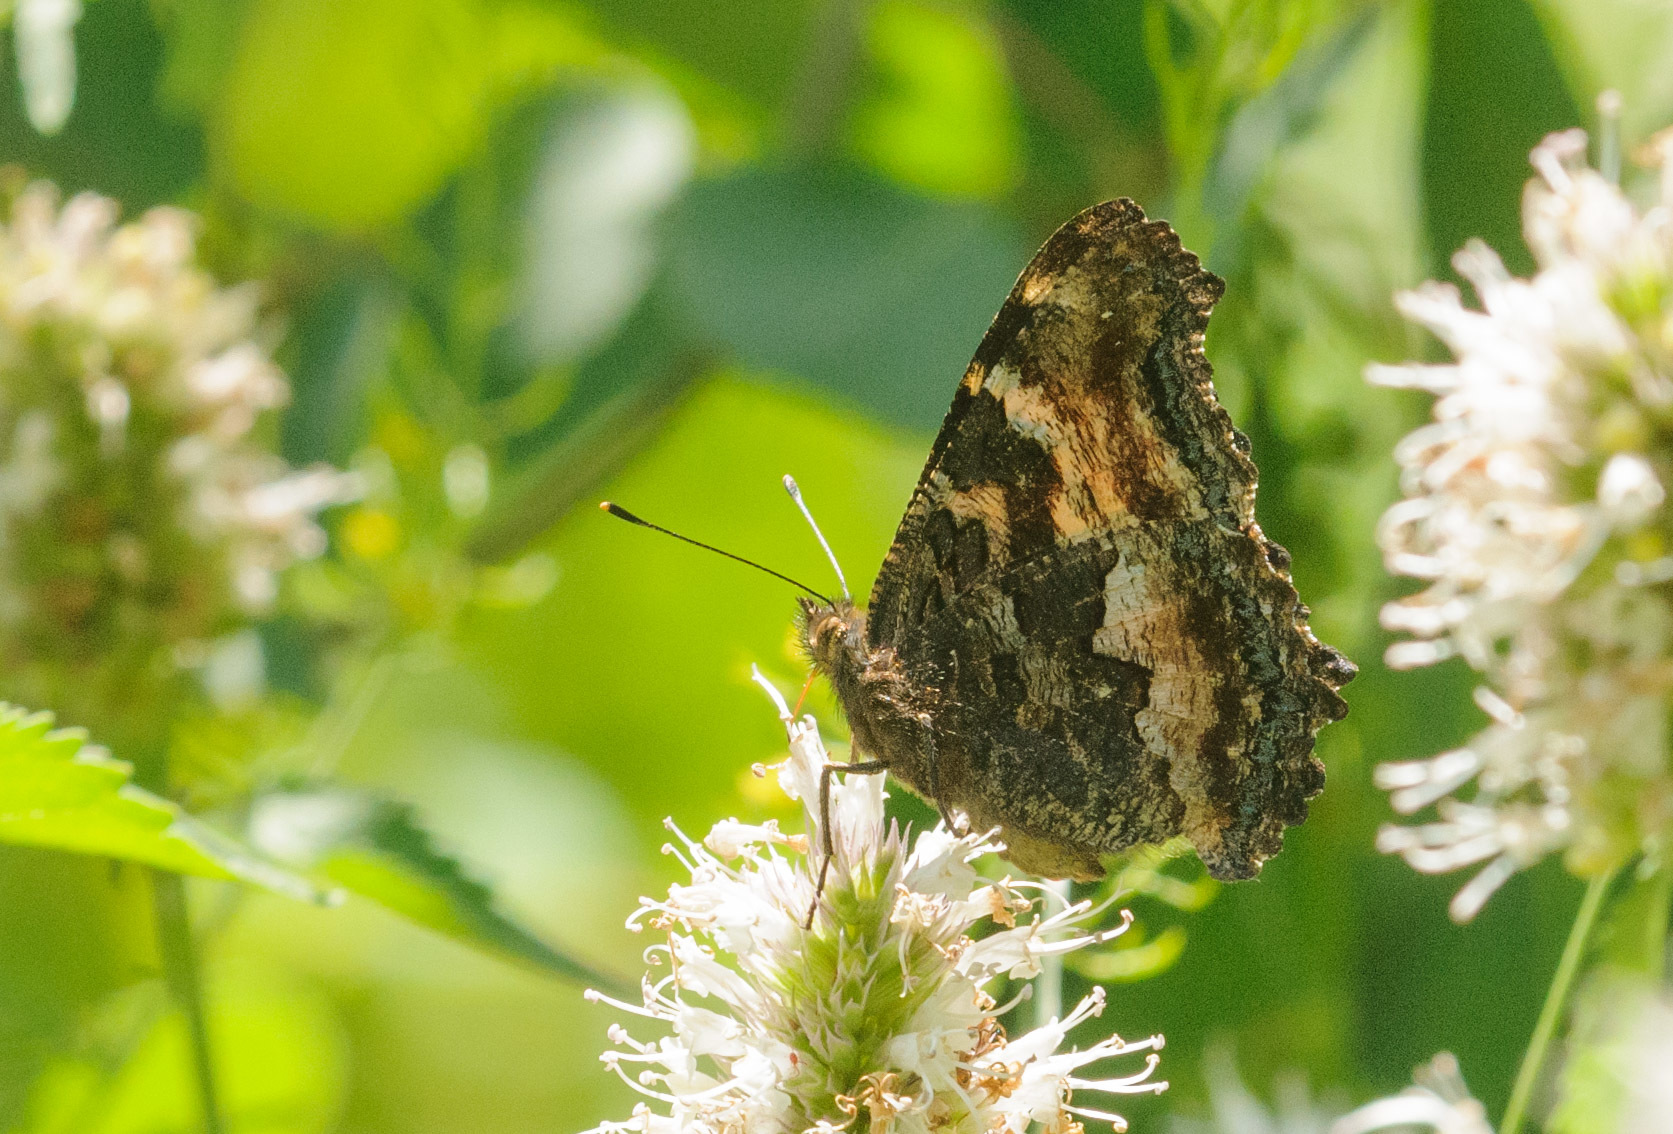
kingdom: Animalia
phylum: Arthropoda
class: Insecta
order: Lepidoptera
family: Nymphalidae
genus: Nymphalis
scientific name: Nymphalis californica
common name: California tortoiseshell
